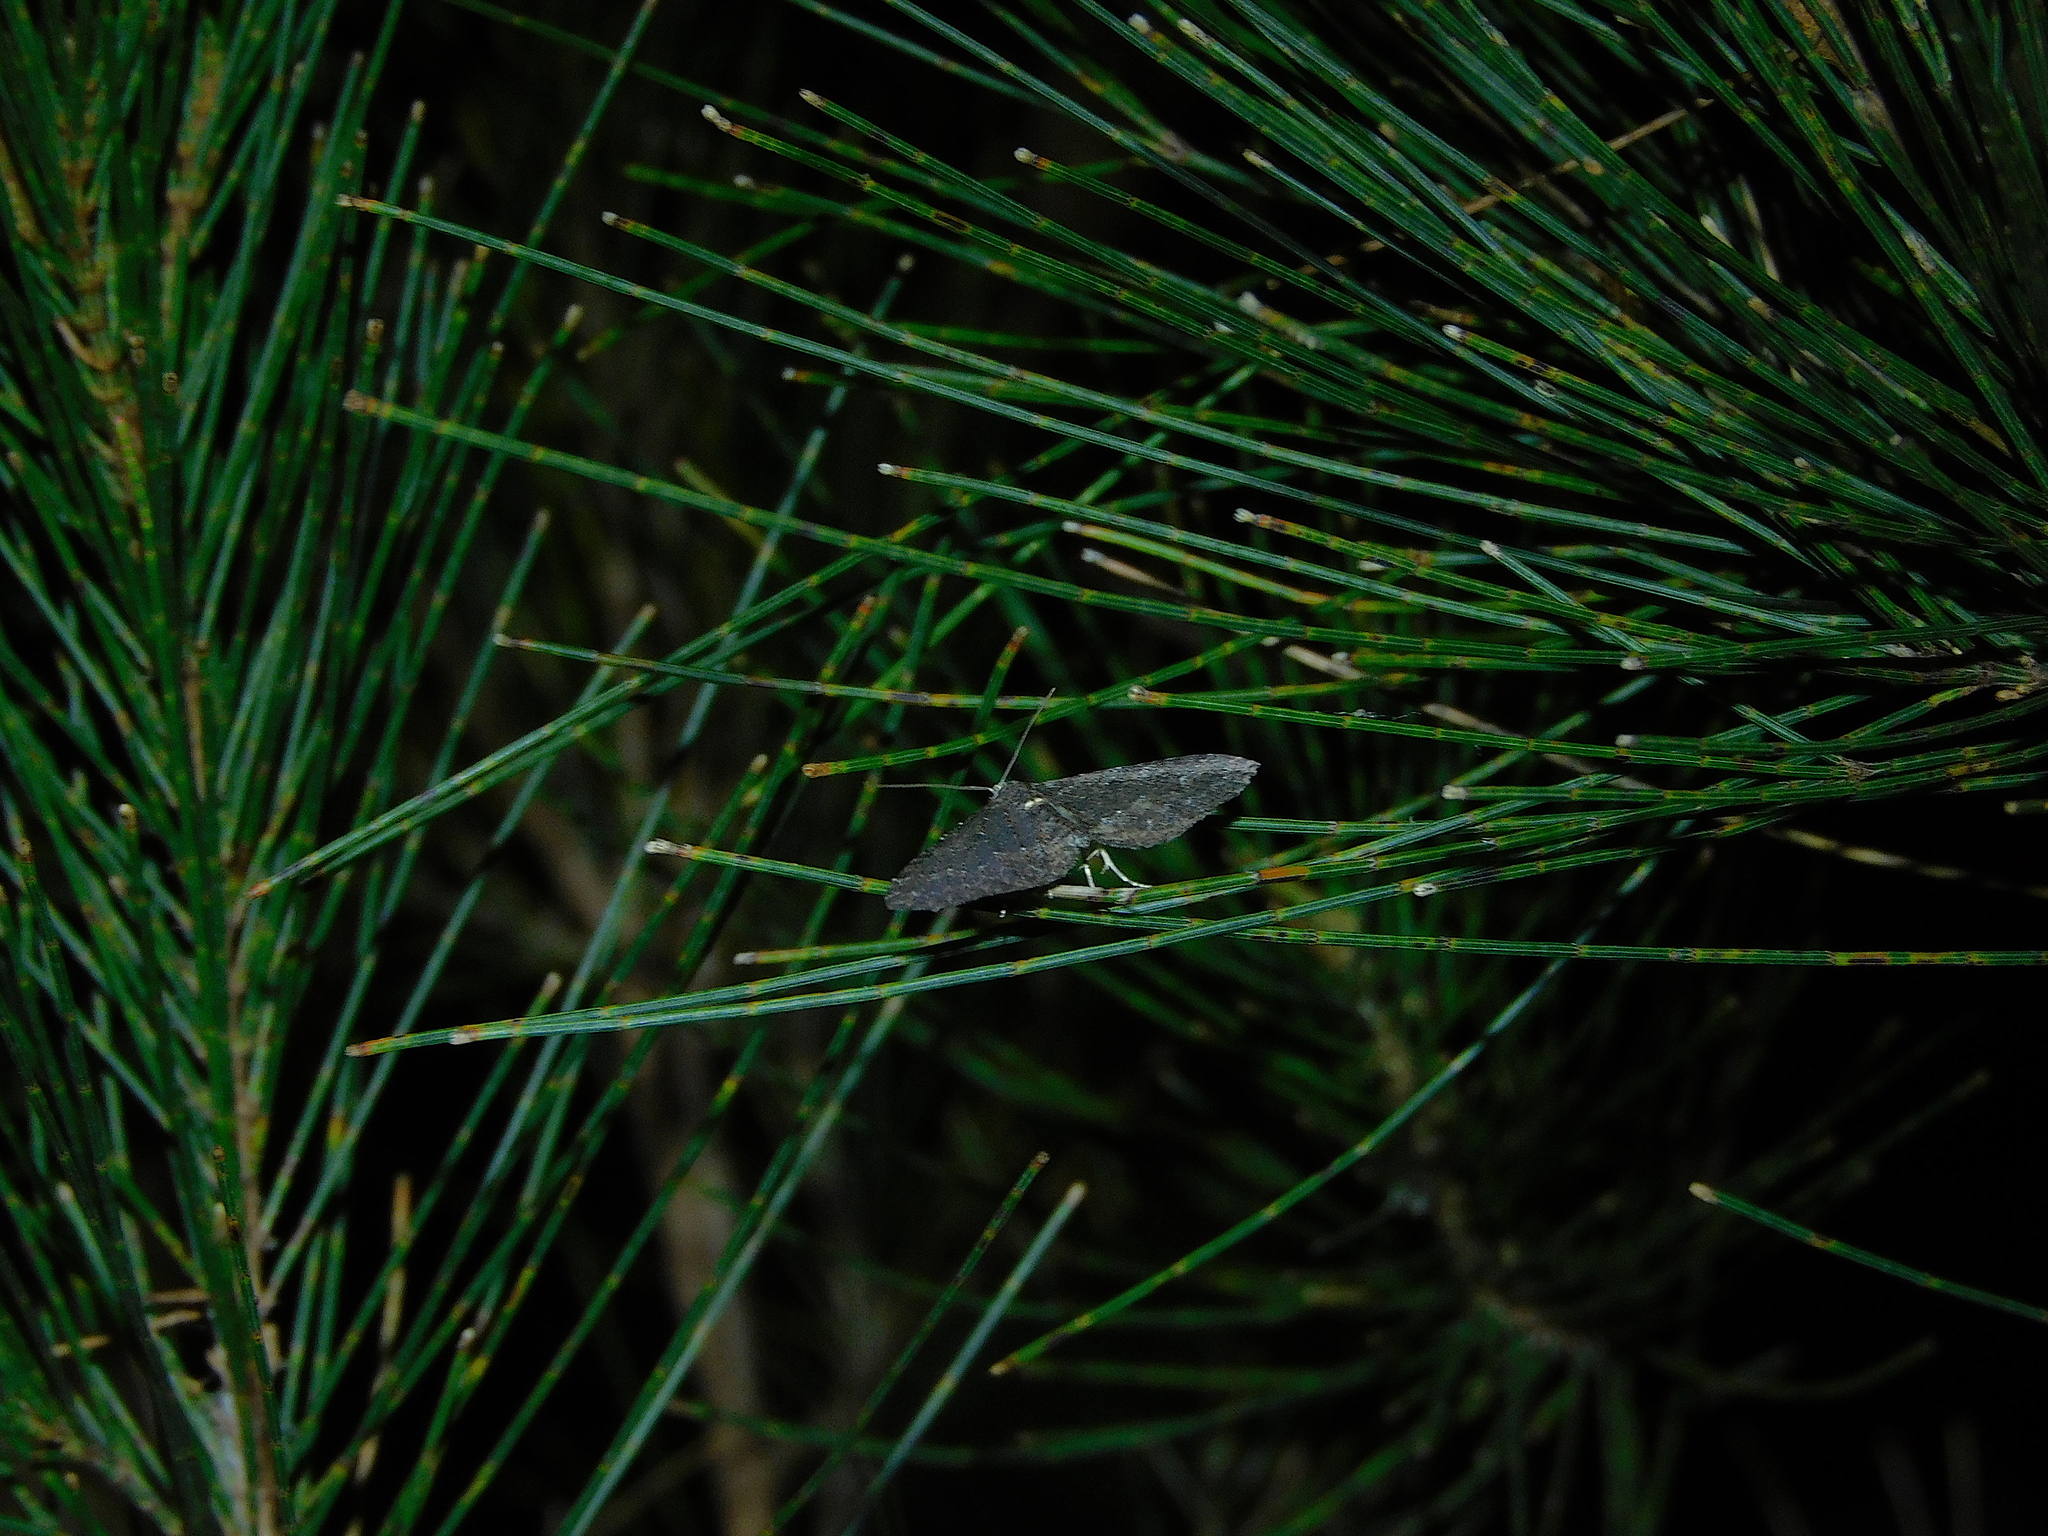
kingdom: Animalia
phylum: Arthropoda
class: Insecta
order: Lepidoptera
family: Geometridae
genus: Xanthorhoe
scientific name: Xanthorhoe xerodes
